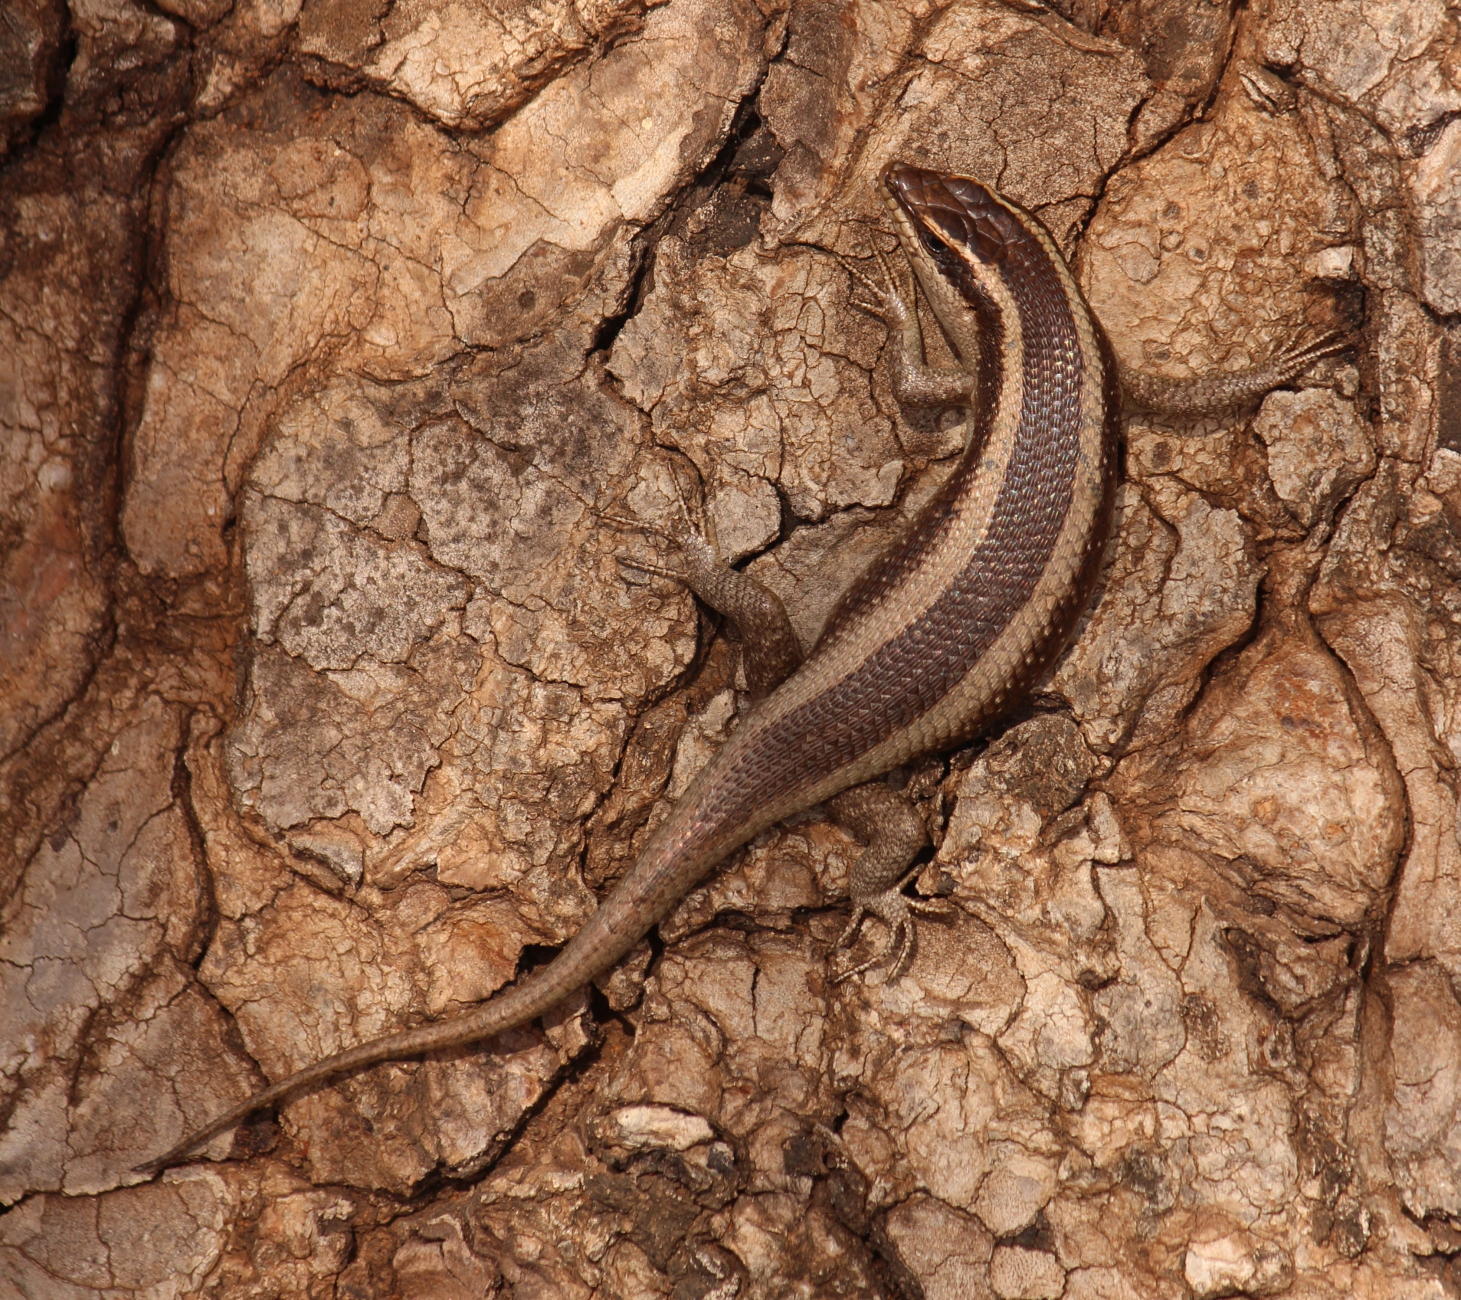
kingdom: Animalia
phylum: Chordata
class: Squamata
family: Scincidae
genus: Trachylepis
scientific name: Trachylepis striata
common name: African striped mabuya
